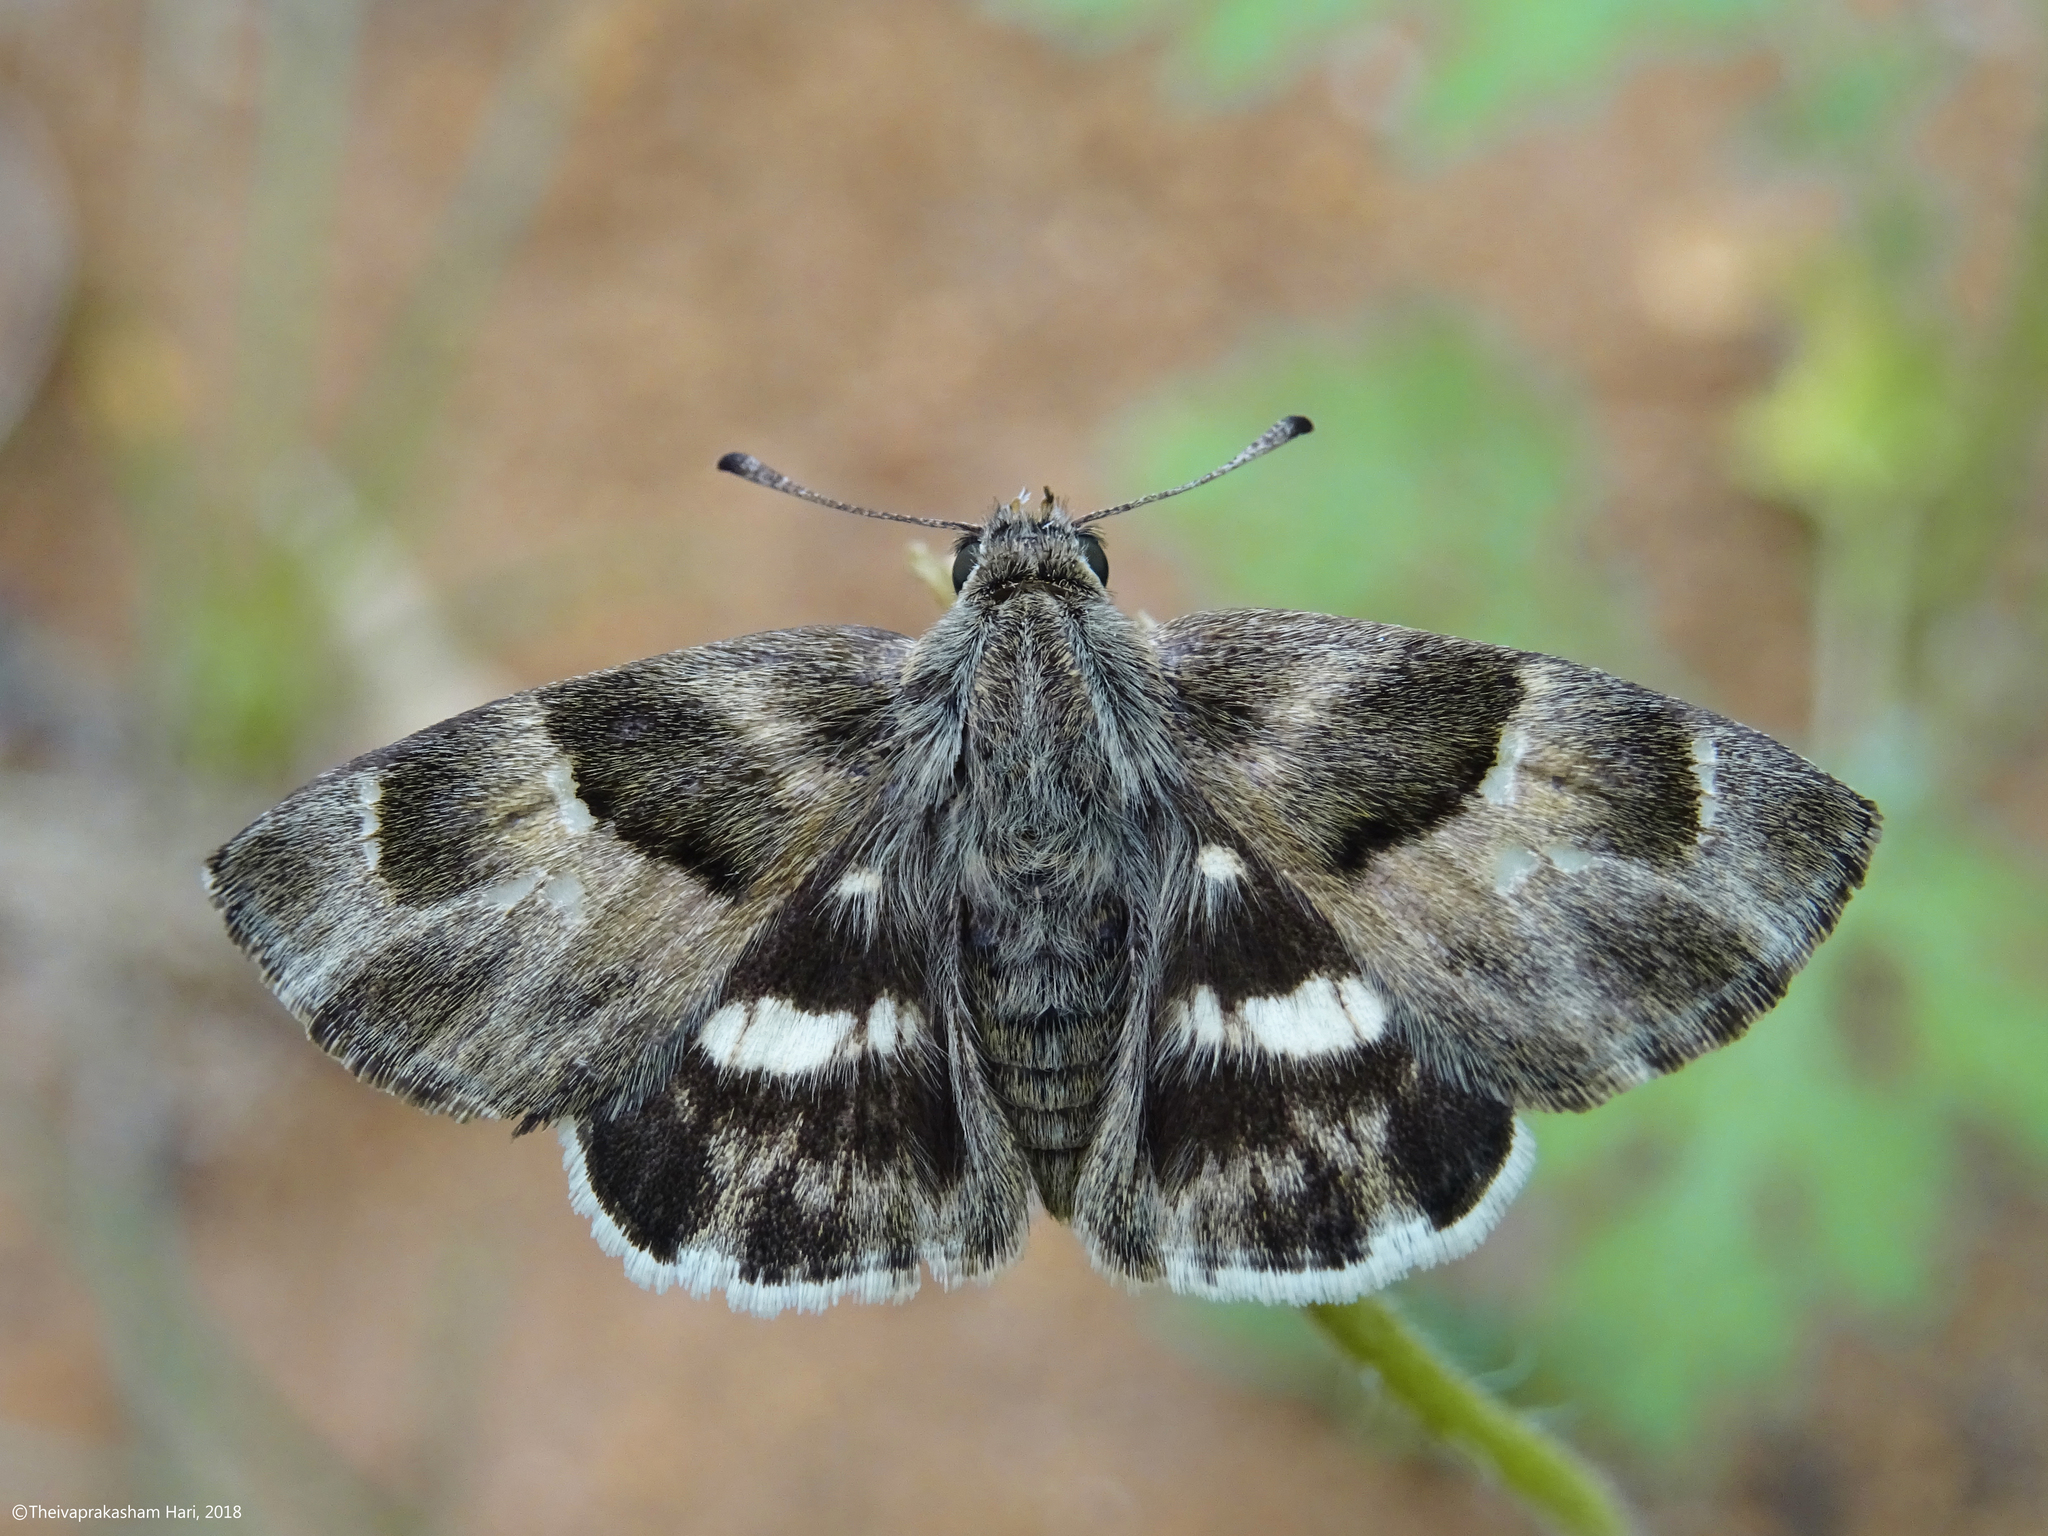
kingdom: Animalia
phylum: Arthropoda
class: Insecta
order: Lepidoptera
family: Hesperiidae
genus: Gomalia
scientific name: Gomalia elma
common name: Green-marbled skipper
